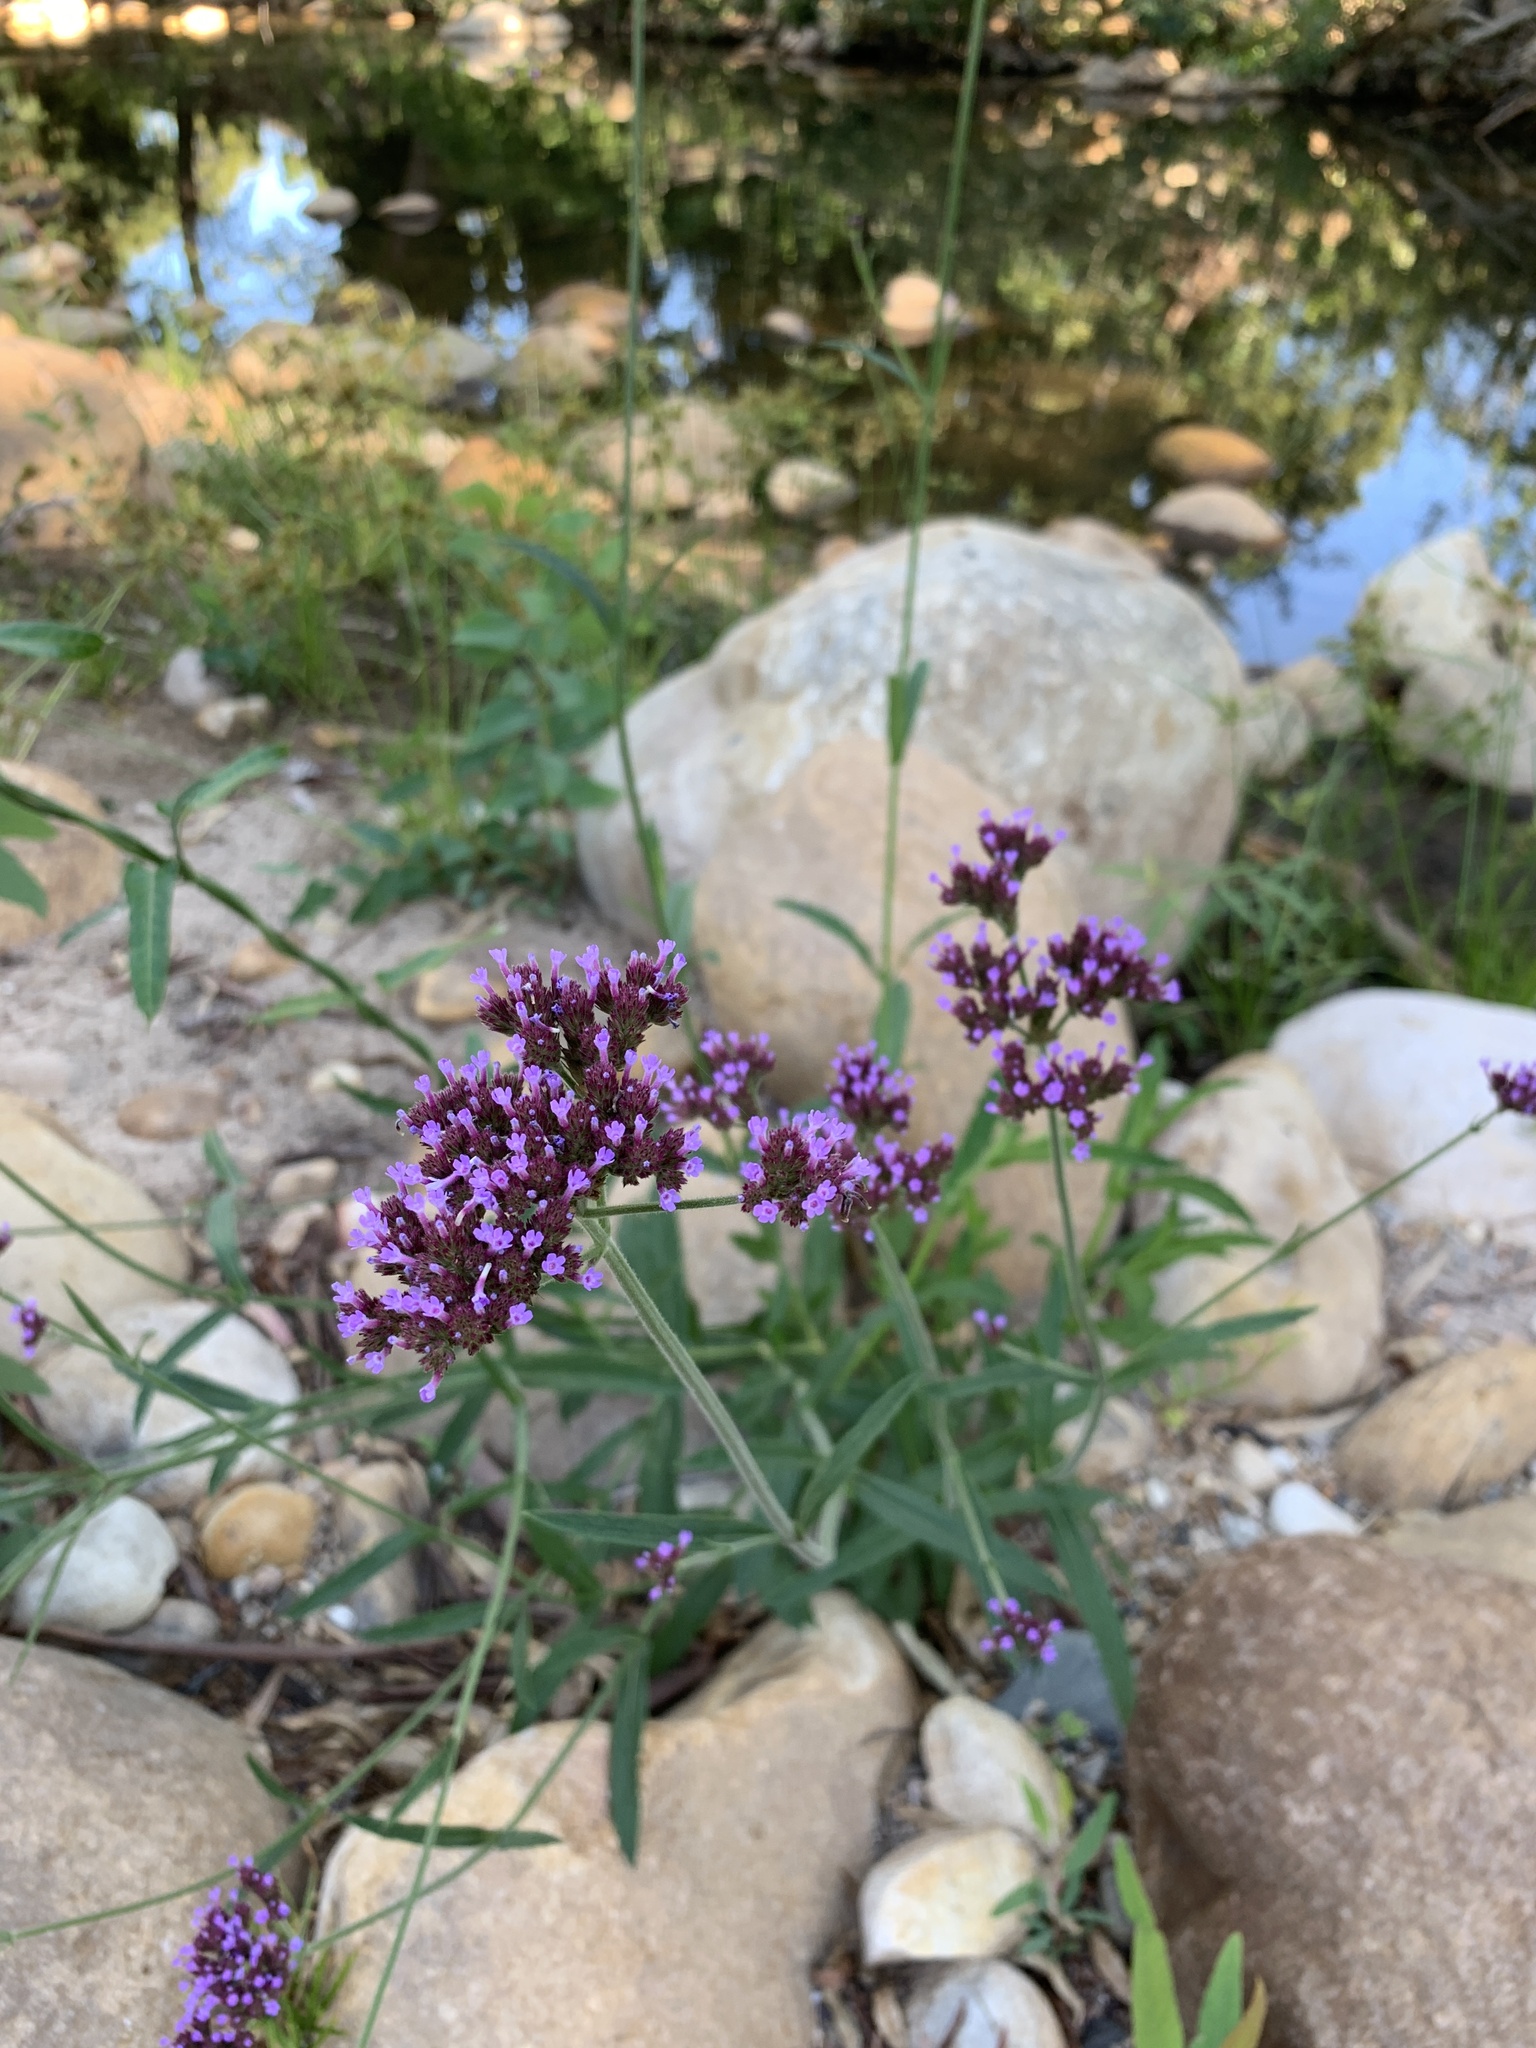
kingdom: Plantae
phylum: Tracheophyta
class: Magnoliopsida
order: Lamiales
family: Verbenaceae
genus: Verbena
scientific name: Verbena bonariensis
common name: Purpletop vervain
